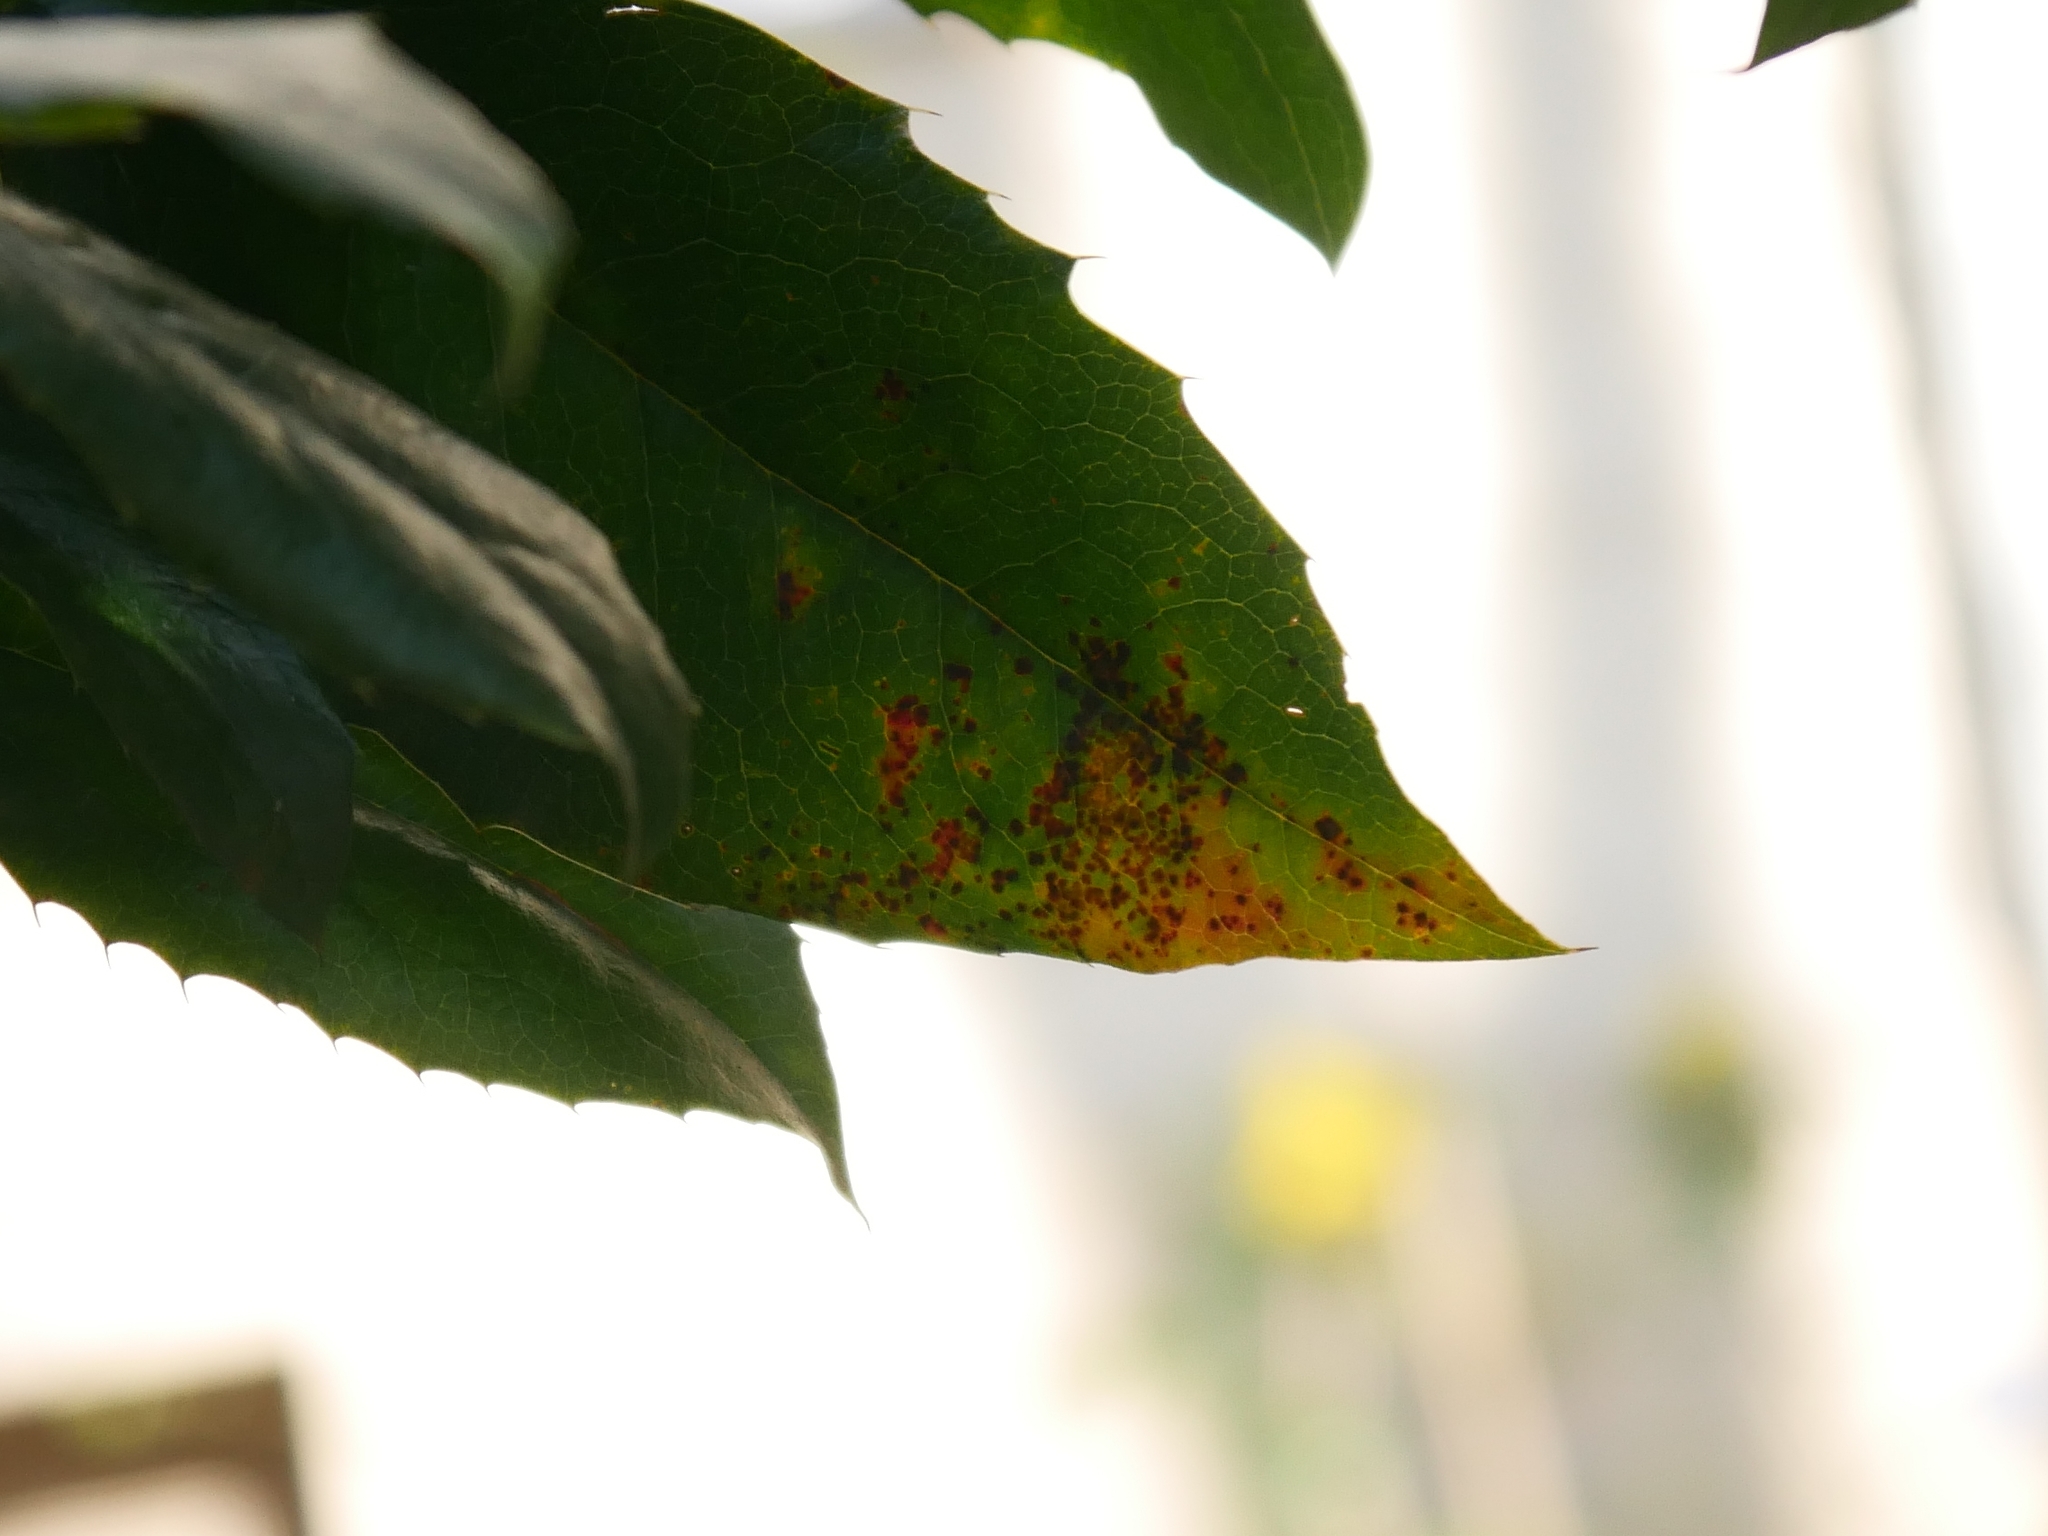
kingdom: Fungi
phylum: Basidiomycota
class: Pucciniomycetes
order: Pucciniales
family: Pucciniaceae
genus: Cumminsiella
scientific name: Cumminsiella mirabilissima
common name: Mahonia rust
